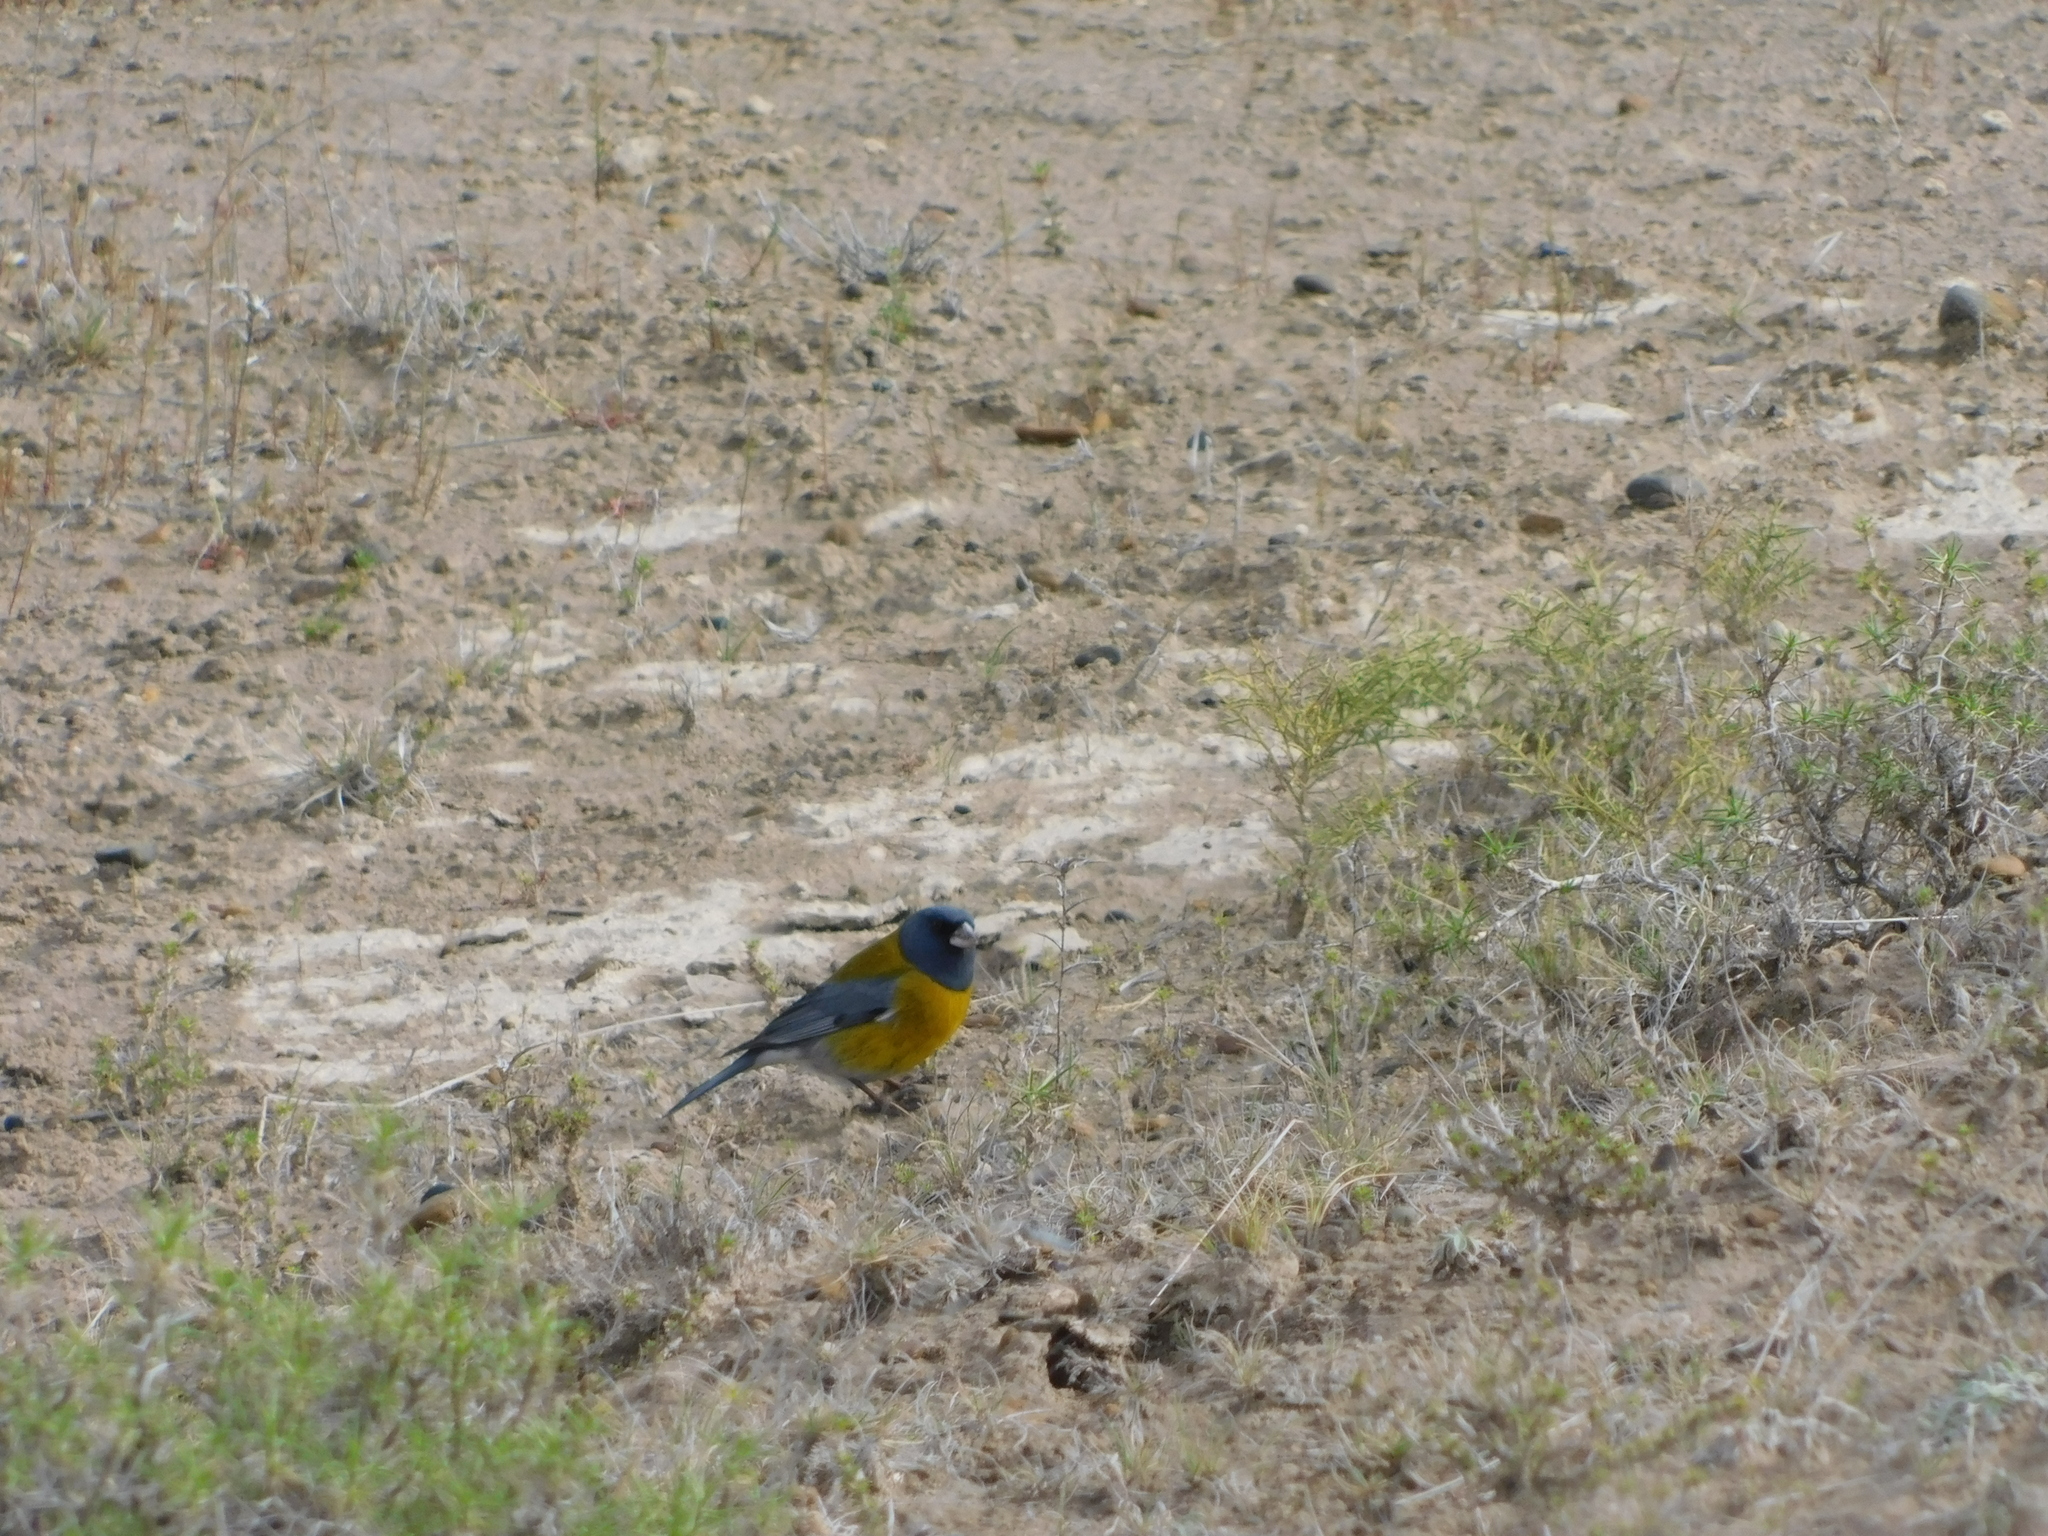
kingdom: Animalia
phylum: Chordata
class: Aves
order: Passeriformes
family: Thraupidae
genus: Phrygilus
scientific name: Phrygilus gayi
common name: Grey-hooded sierra finch
